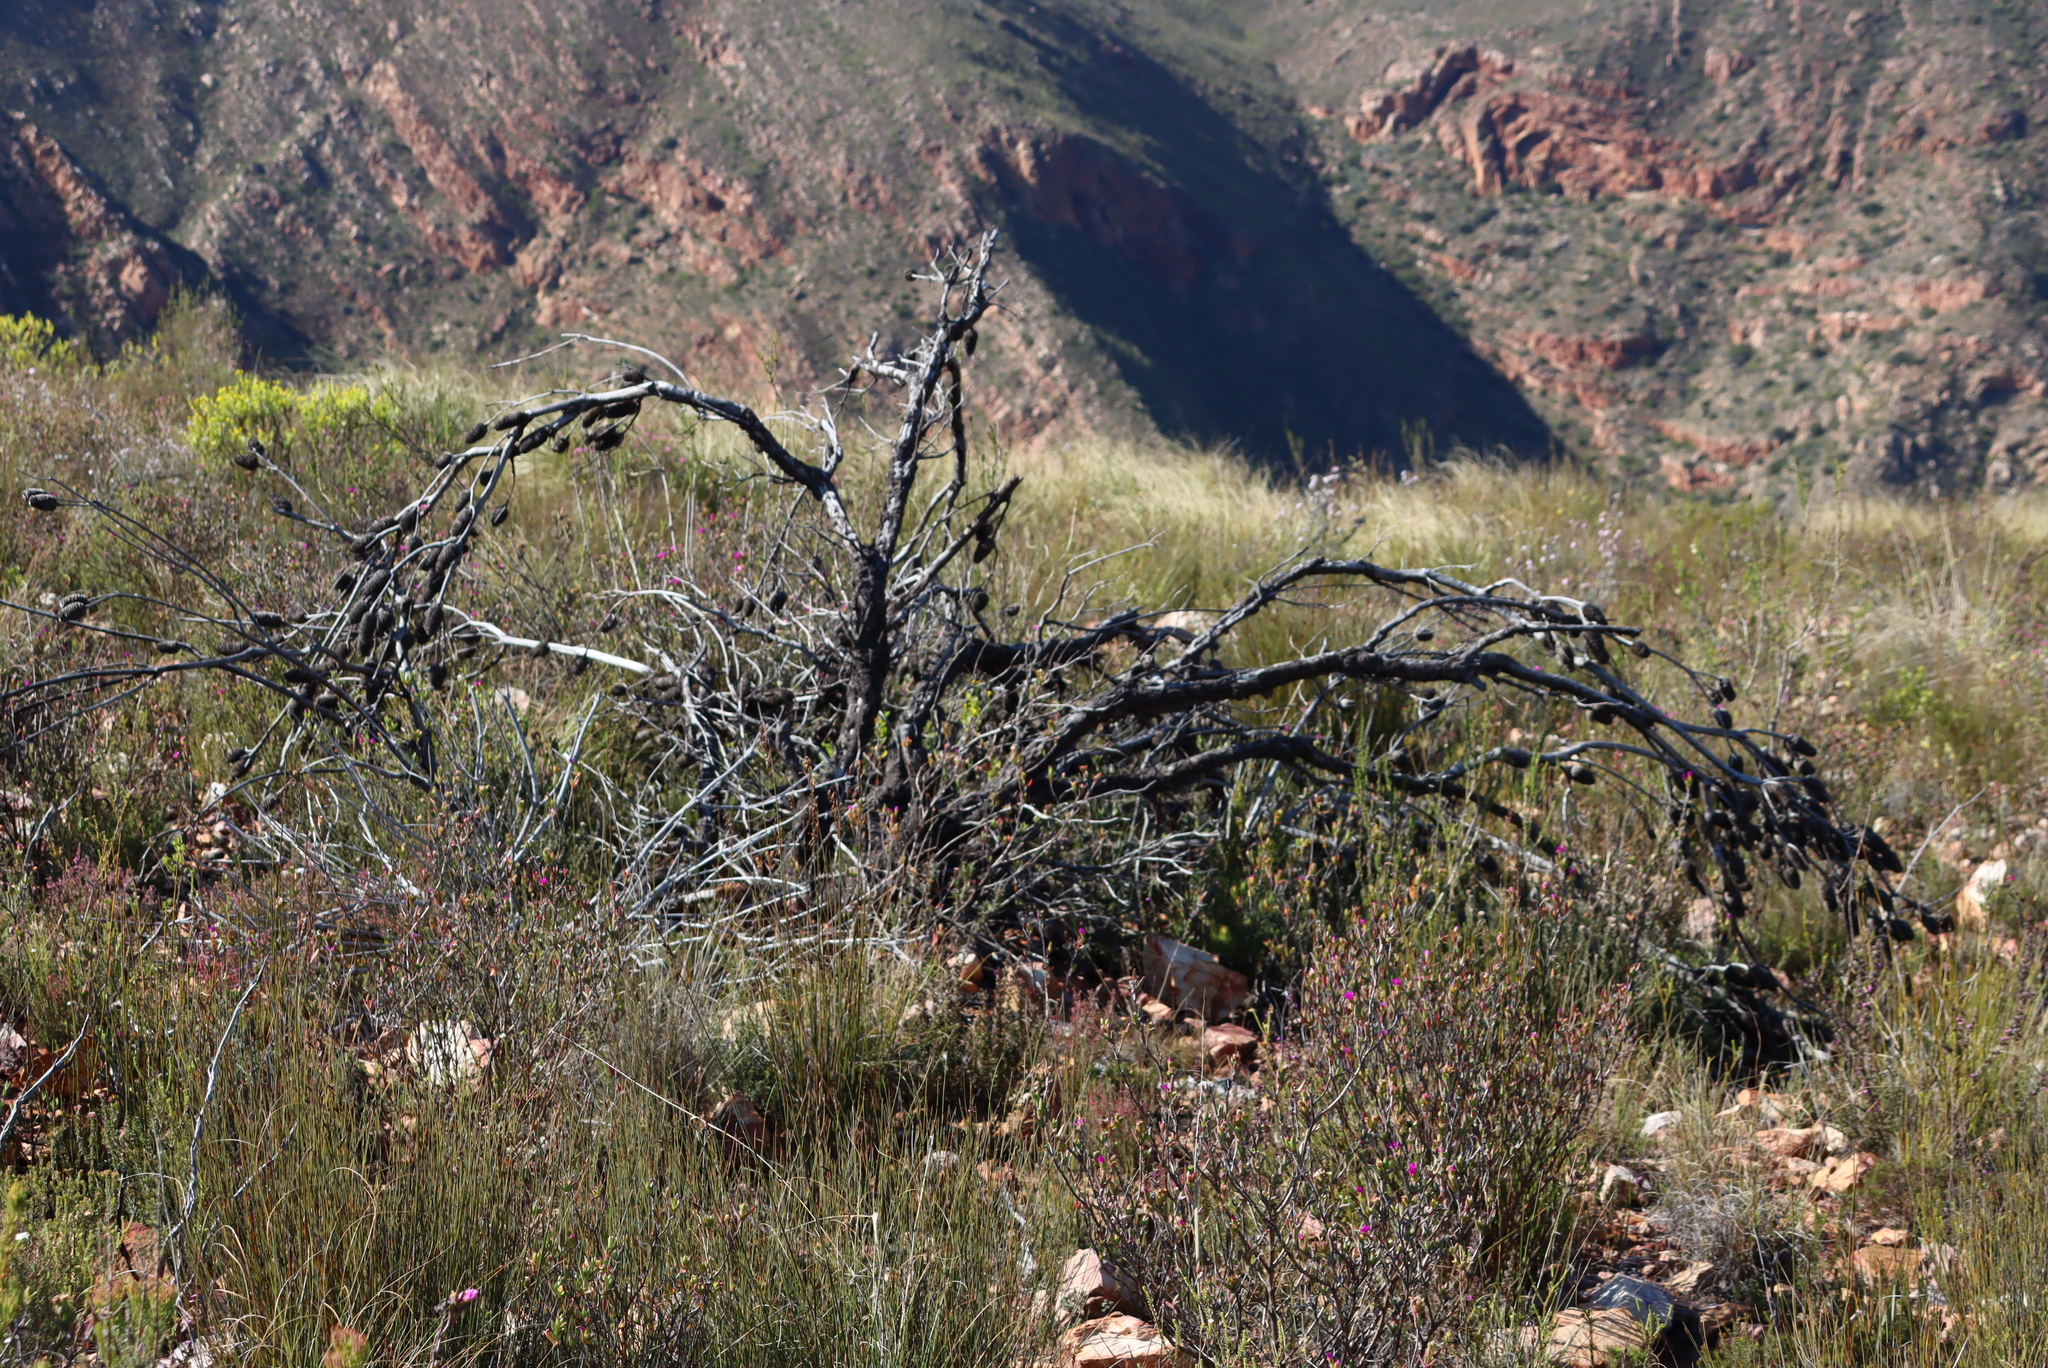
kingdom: Plantae
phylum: Tracheophyta
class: Magnoliopsida
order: Proteales
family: Proteaceae
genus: Leucadendron
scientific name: Leucadendron nobile
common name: Karoo conebush
